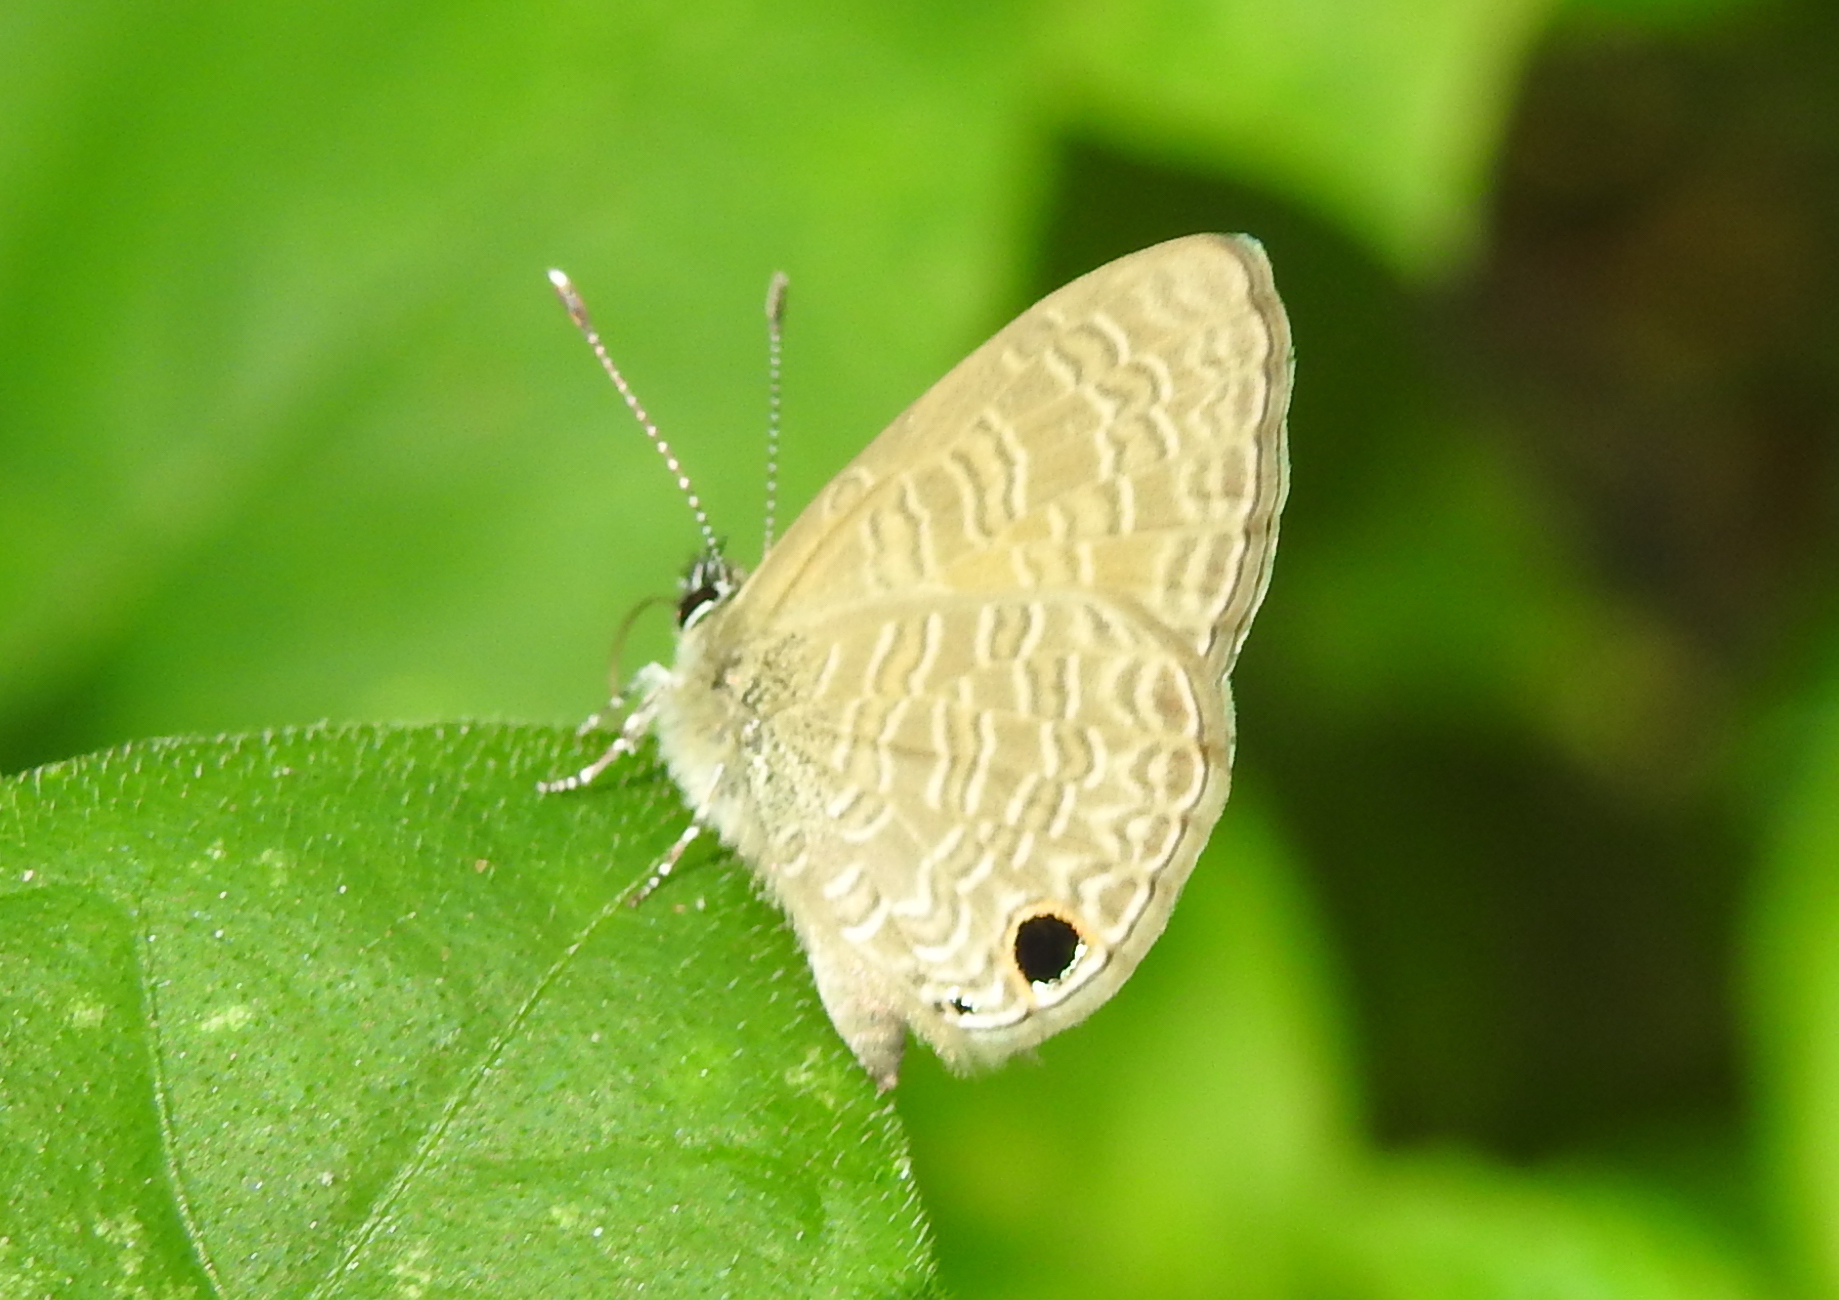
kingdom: Animalia
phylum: Arthropoda
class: Insecta
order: Lepidoptera
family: Lycaenidae
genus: Prosotas
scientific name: Prosotas dubiosa
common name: Tailless lineblue
